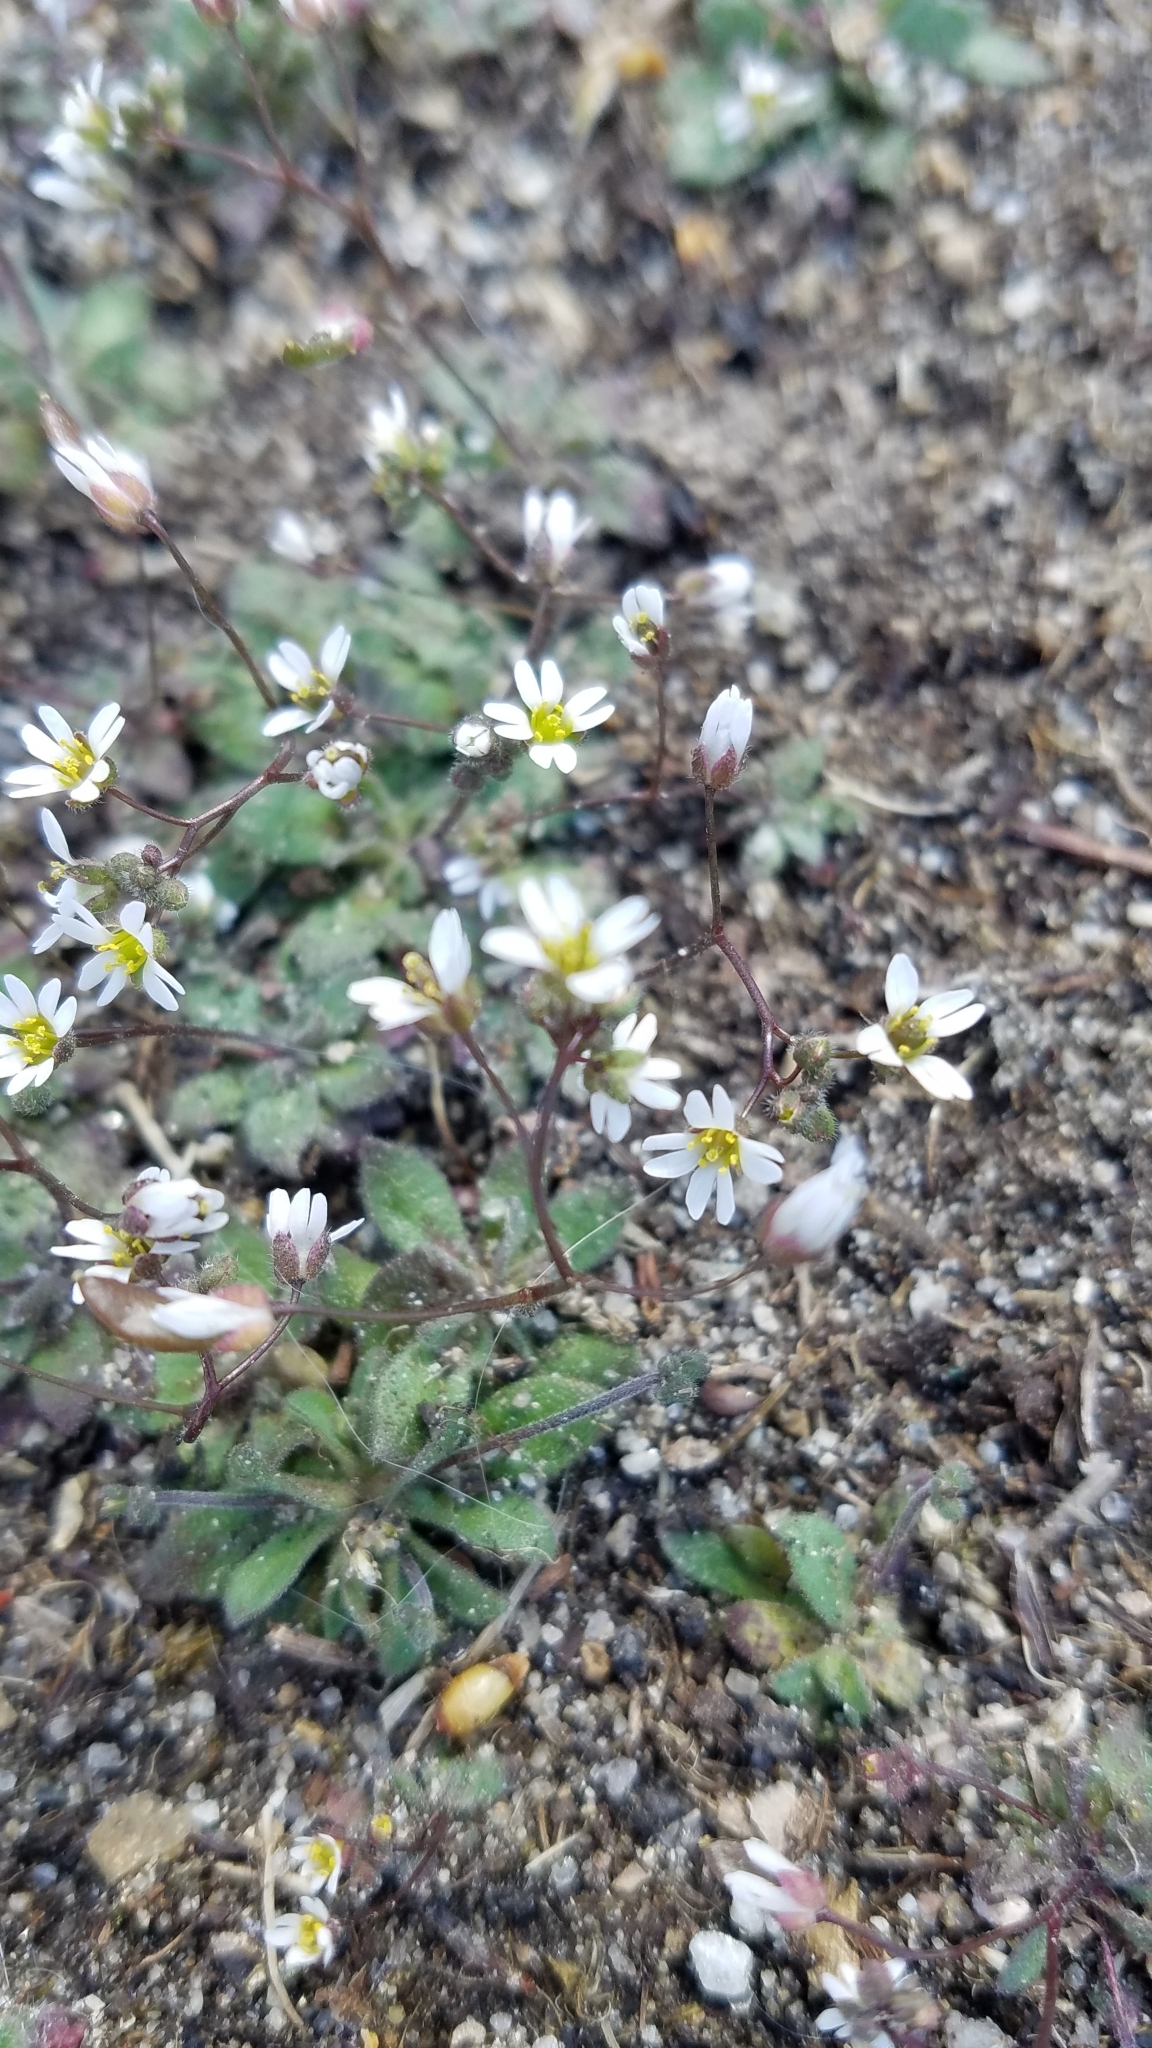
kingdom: Plantae
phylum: Tracheophyta
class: Magnoliopsida
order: Brassicales
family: Brassicaceae
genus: Draba
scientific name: Draba verna
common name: Spring draba
